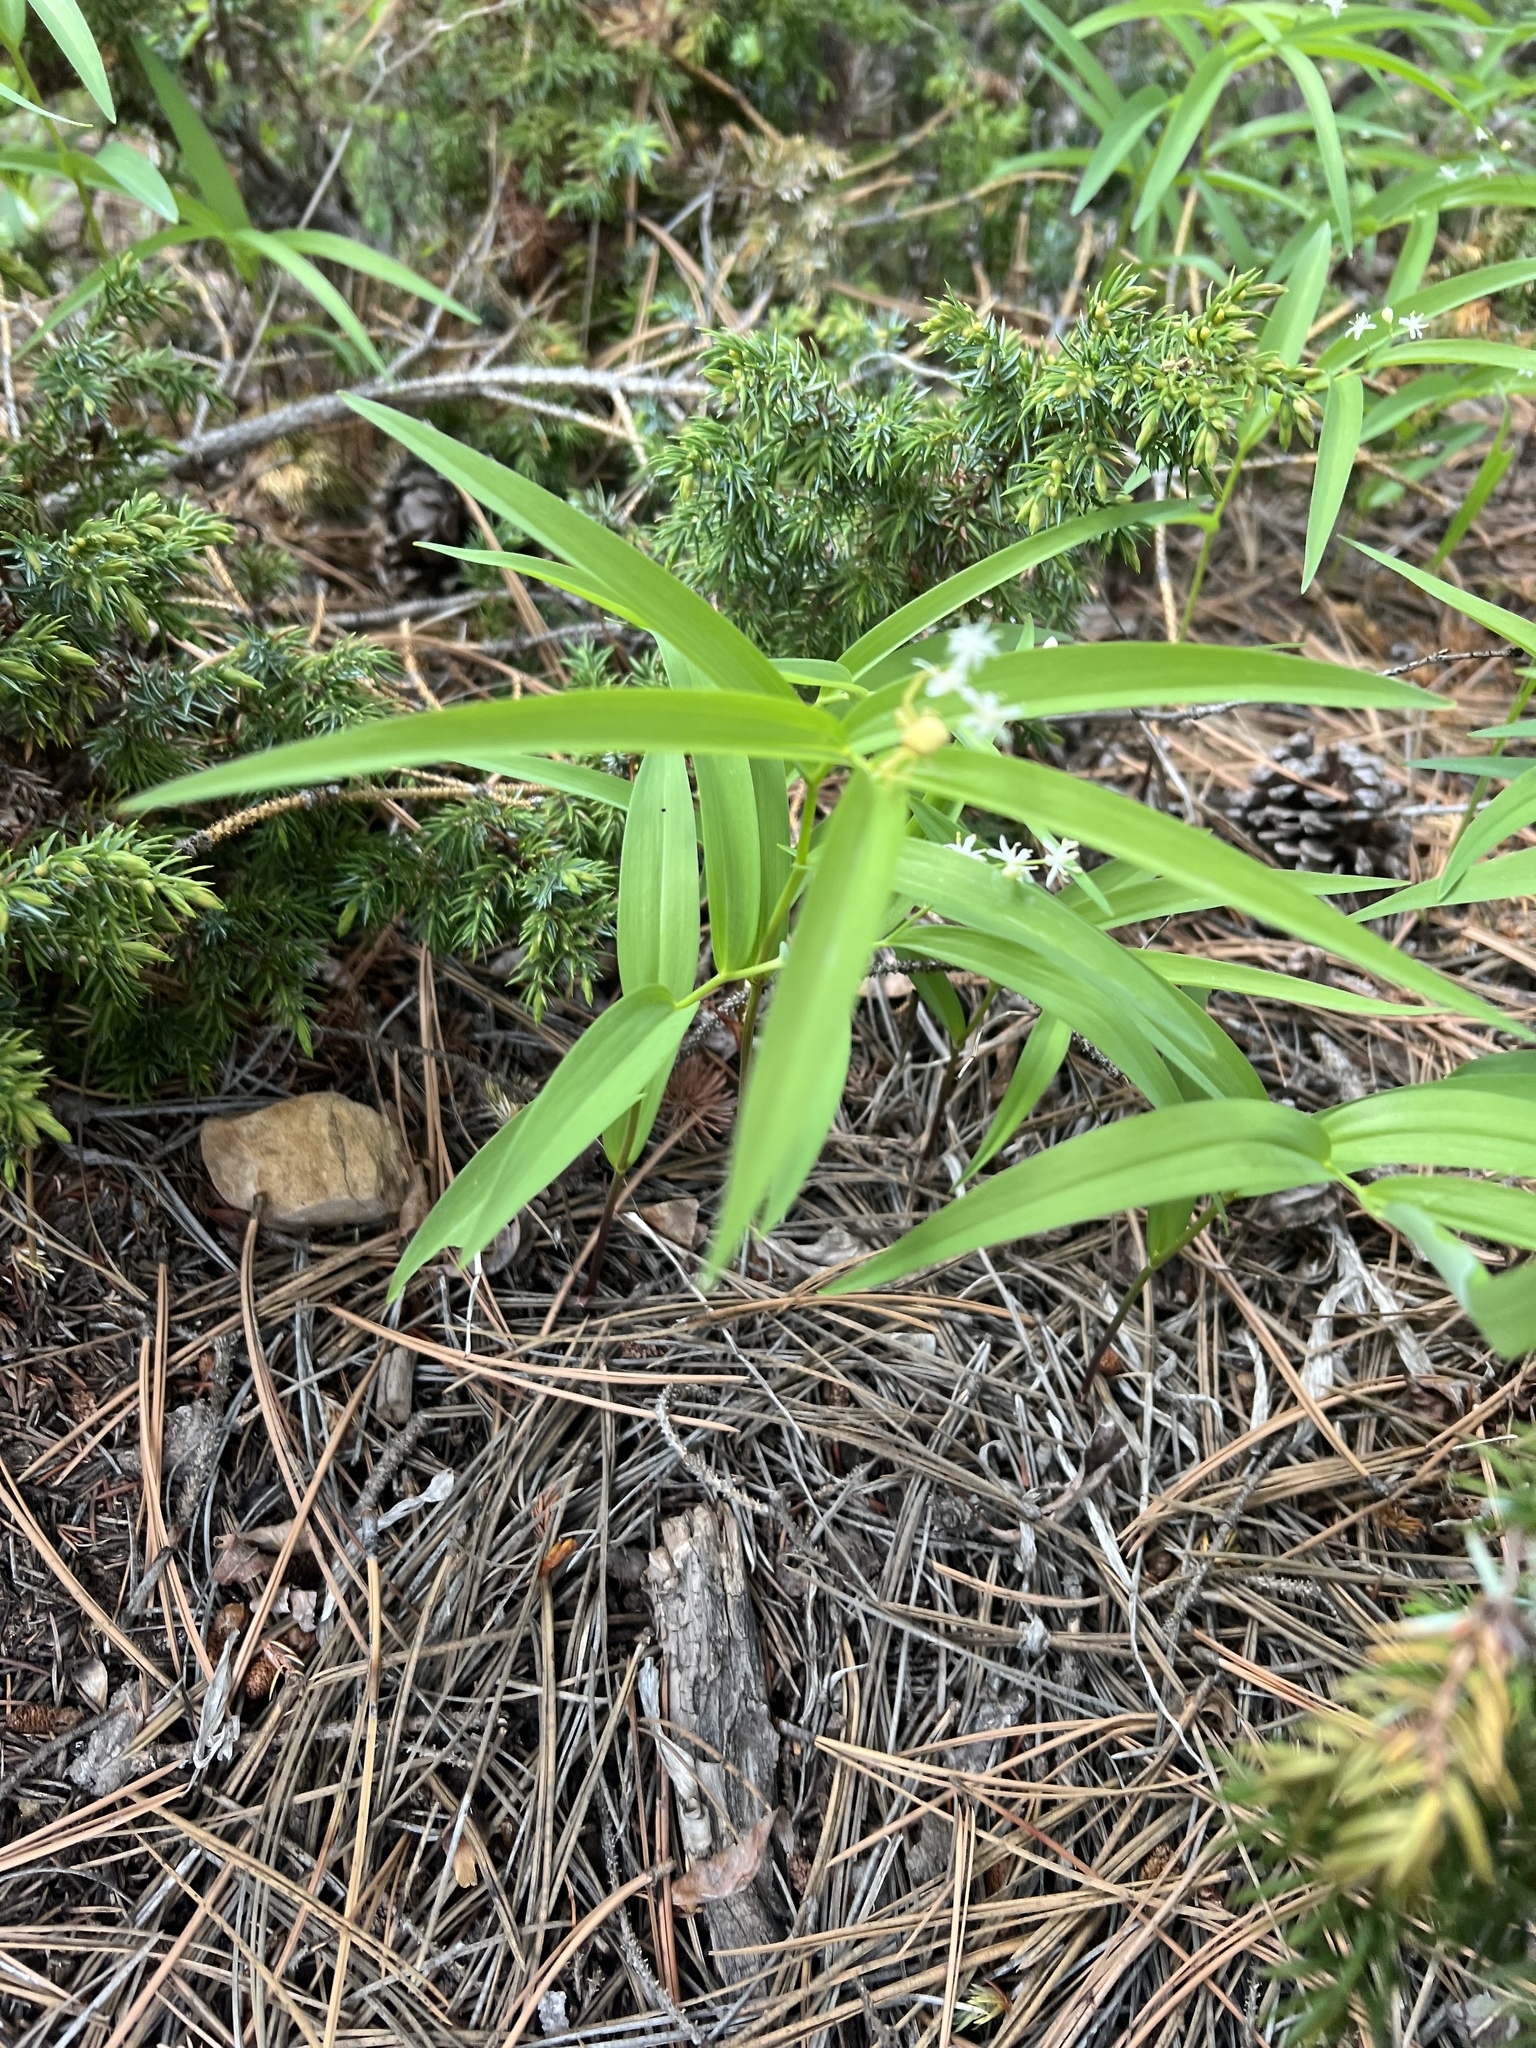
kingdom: Plantae
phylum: Tracheophyta
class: Liliopsida
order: Asparagales
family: Asparagaceae
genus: Maianthemum
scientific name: Maianthemum stellatum
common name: Little false solomon's seal
